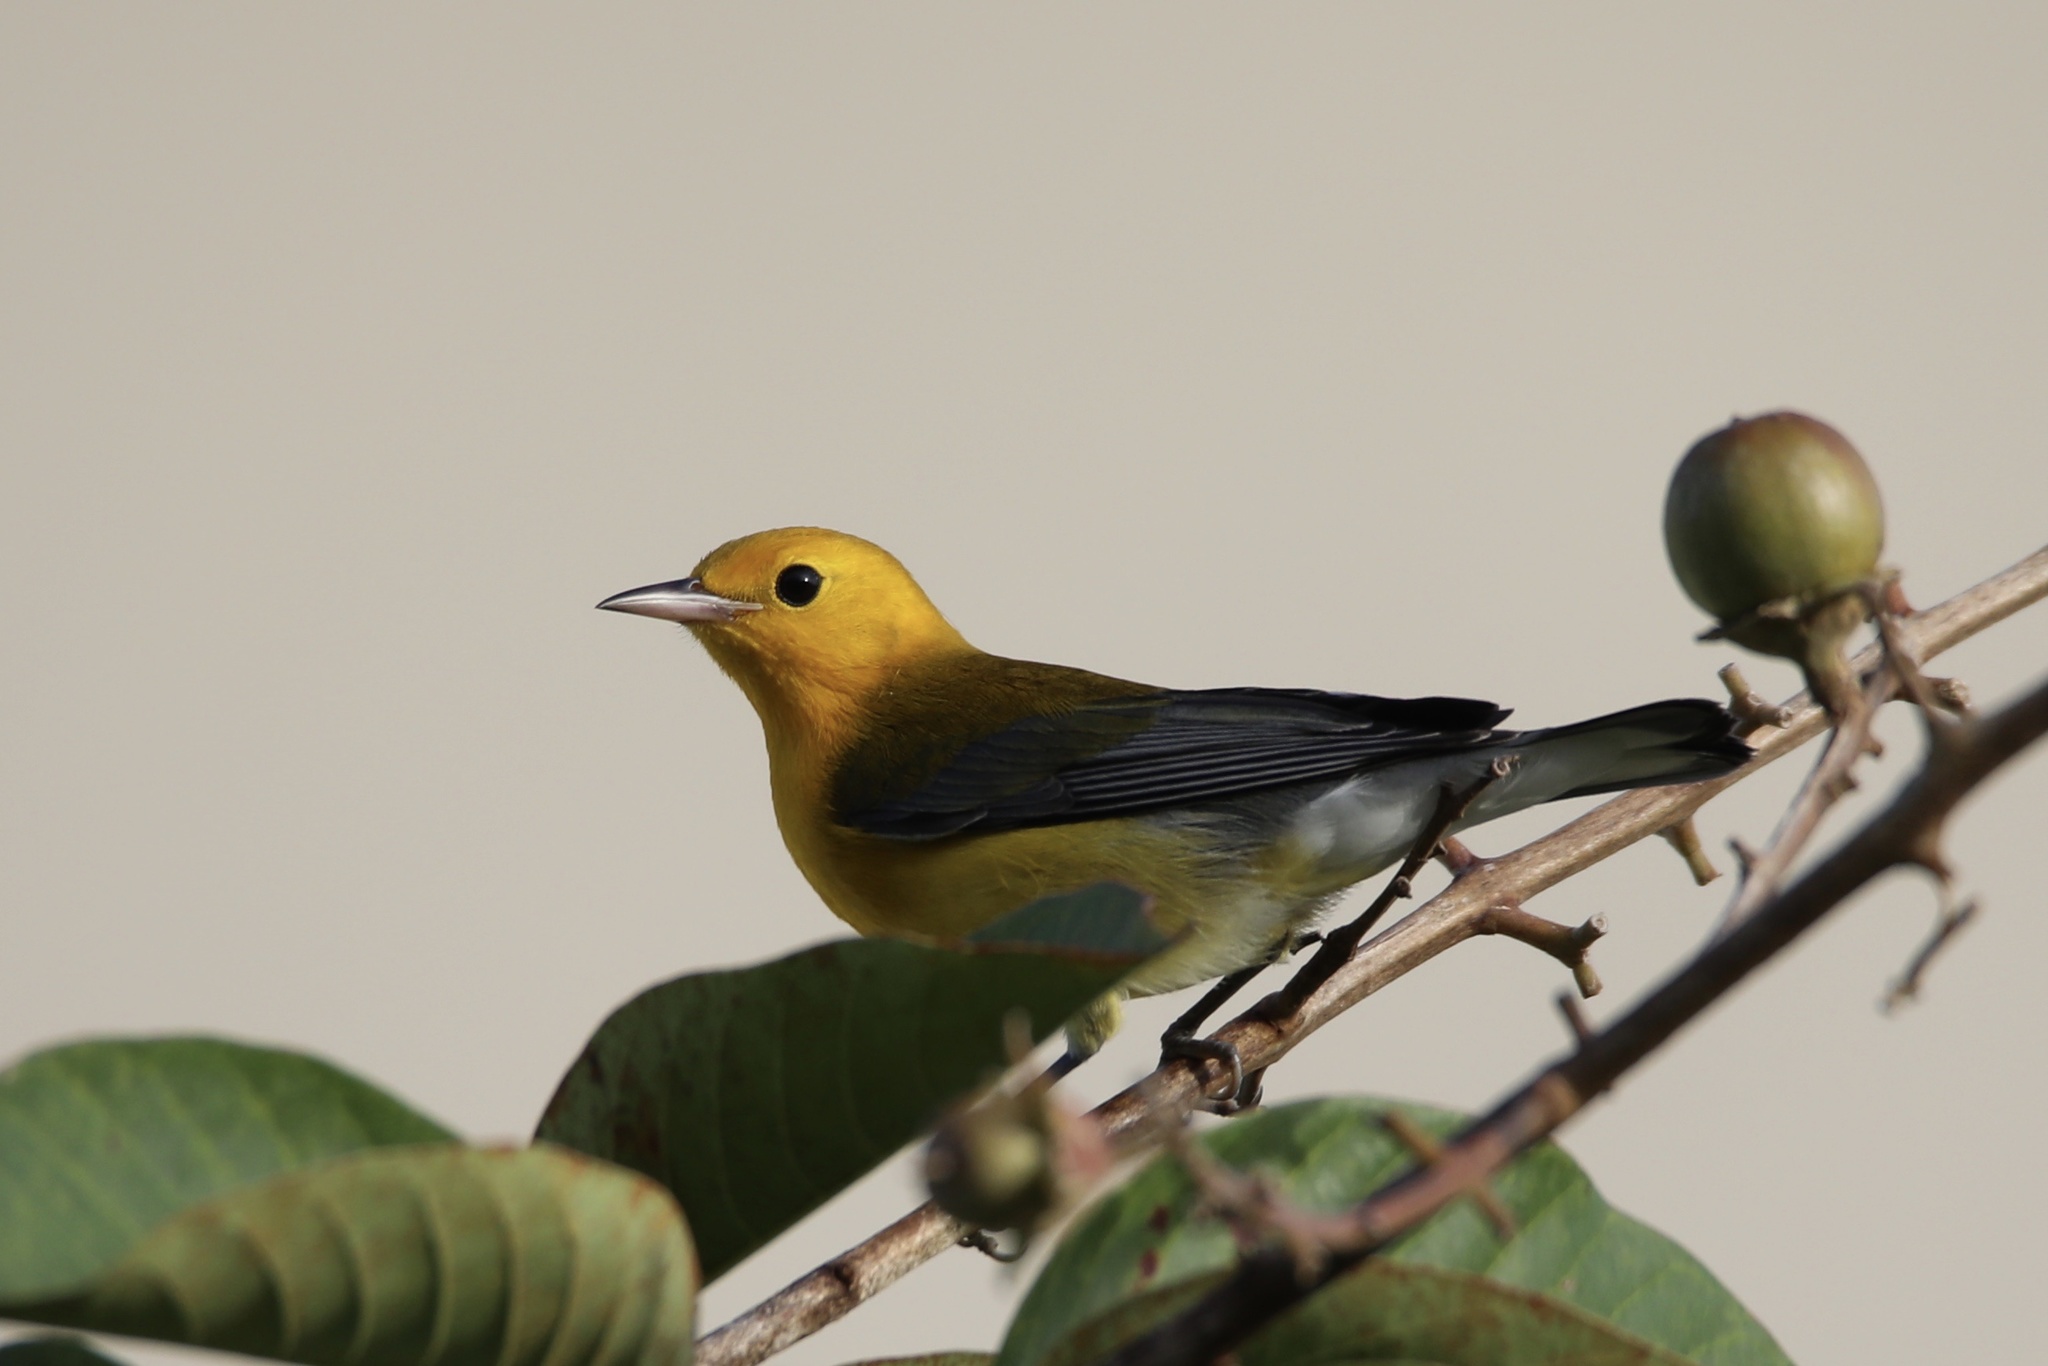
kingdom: Animalia
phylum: Chordata
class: Aves
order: Passeriformes
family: Parulidae
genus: Protonotaria
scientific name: Protonotaria citrea
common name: Prothonotary warbler
